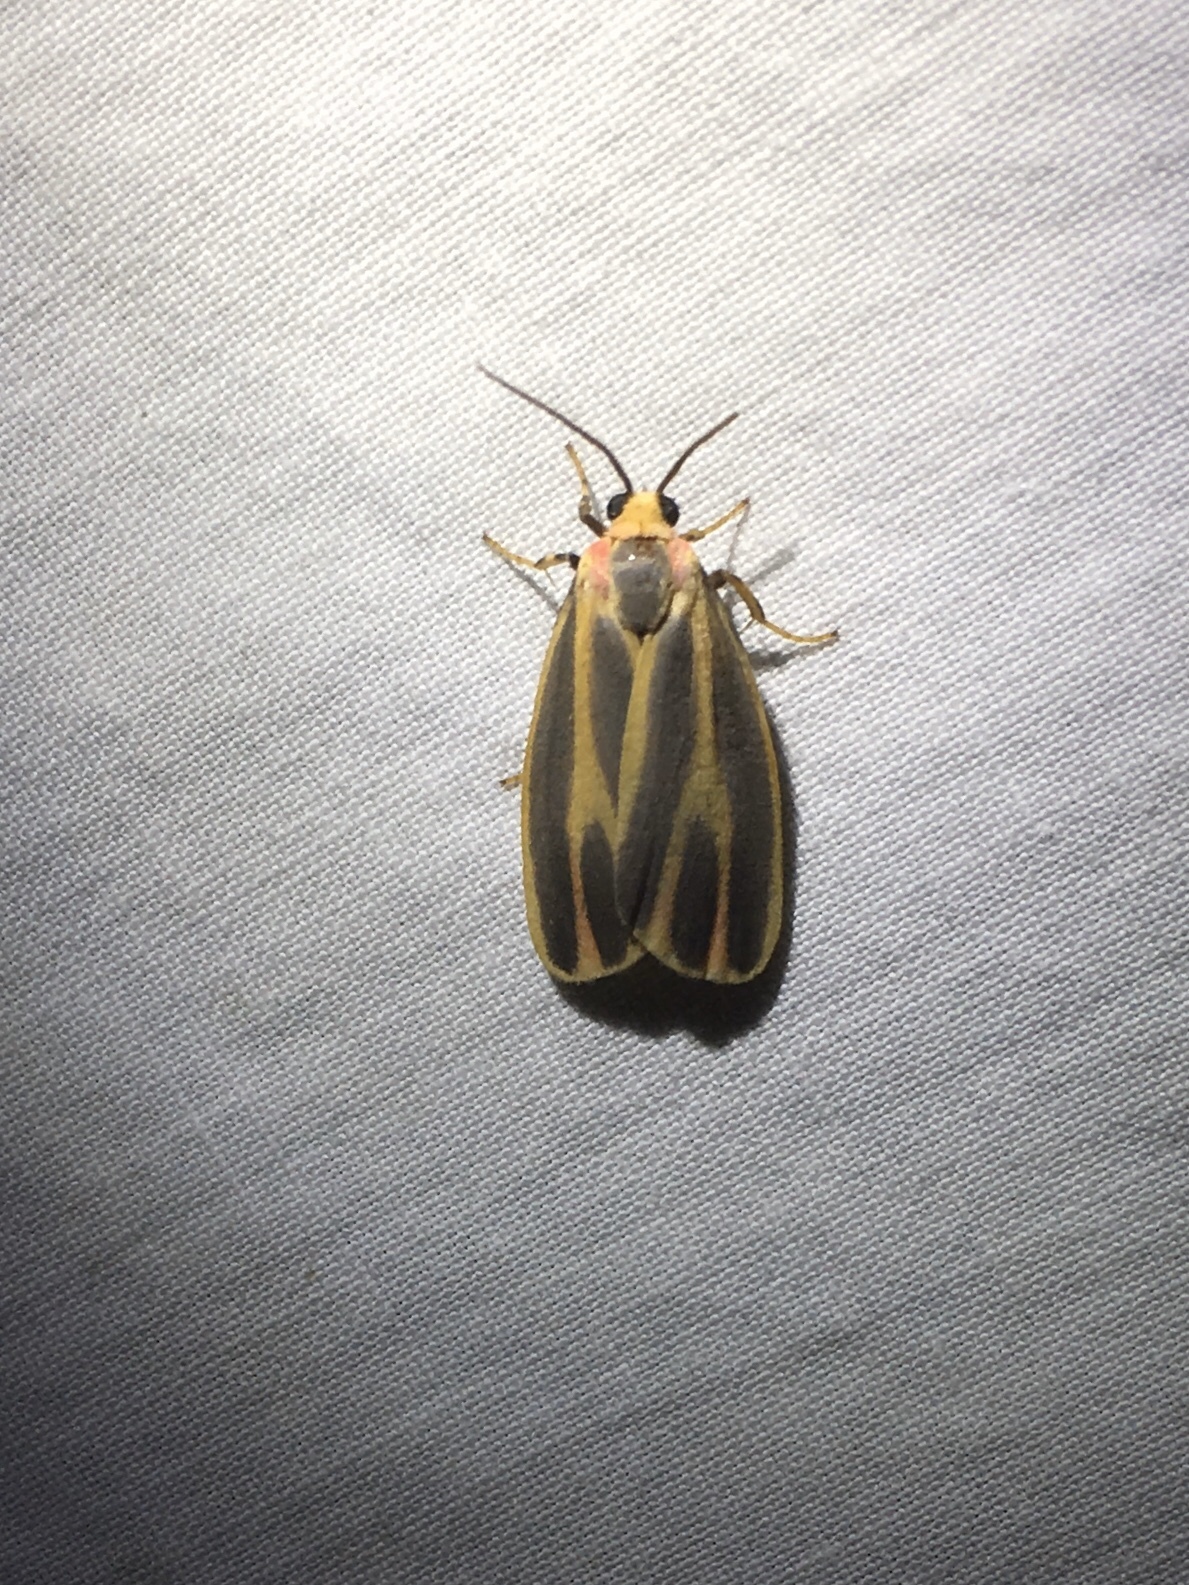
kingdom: Animalia
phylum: Arthropoda
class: Insecta
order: Lepidoptera
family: Erebidae
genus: Hypoprepia
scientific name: Hypoprepia fucosa
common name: Painted lichen moth
